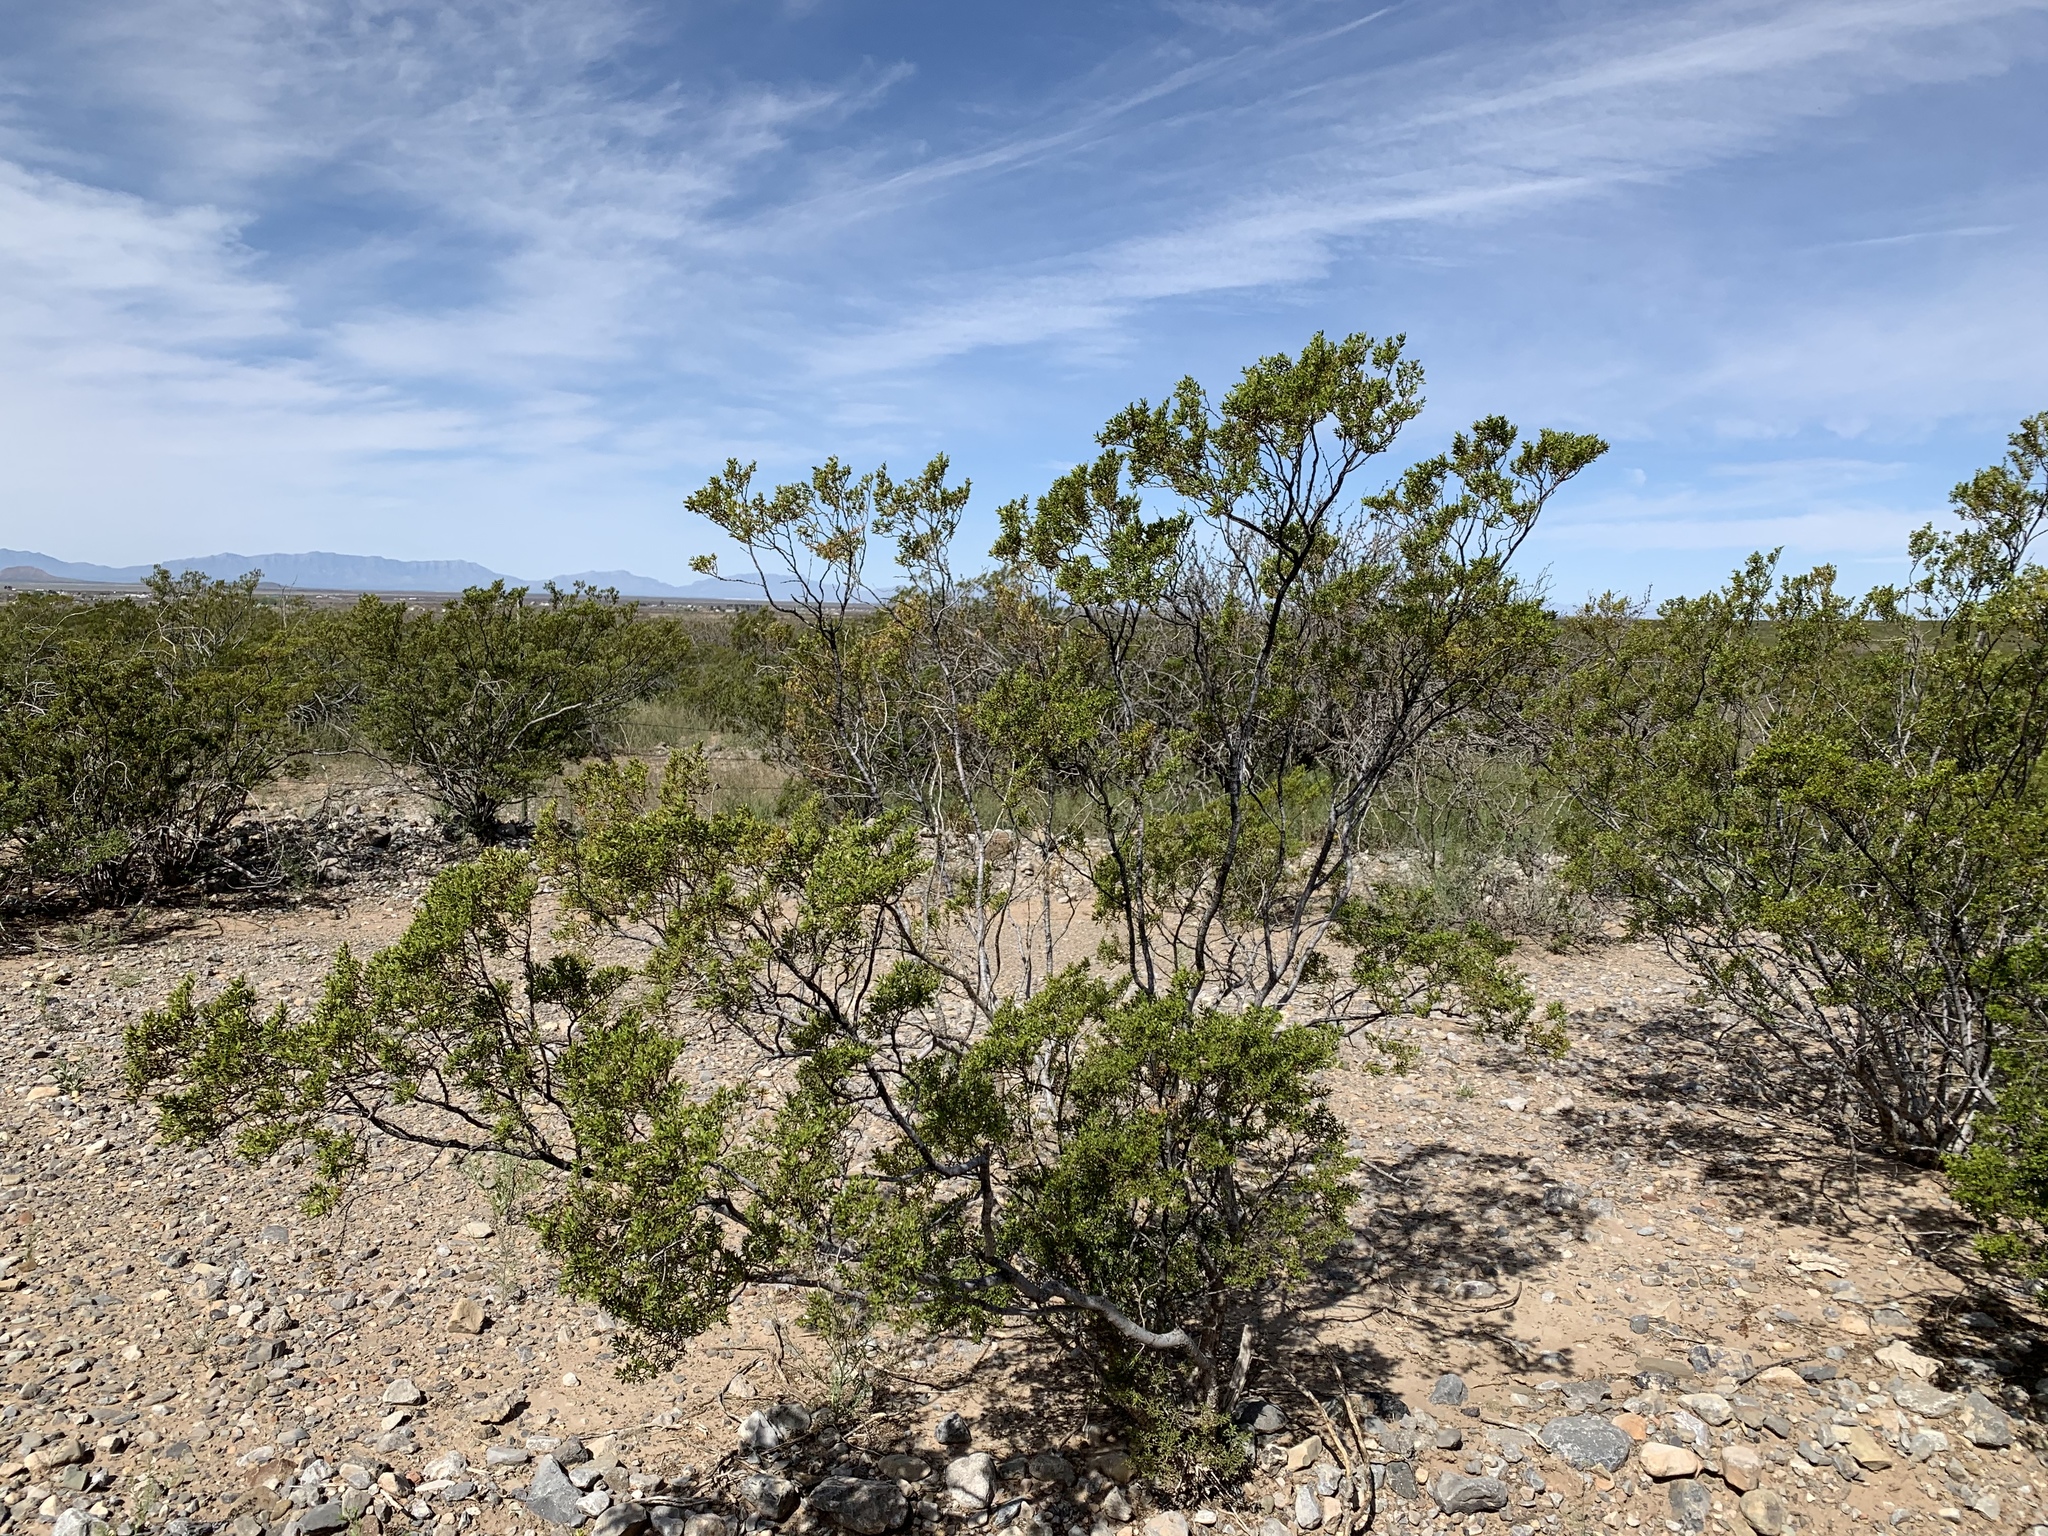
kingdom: Plantae
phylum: Tracheophyta
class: Magnoliopsida
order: Zygophyllales
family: Zygophyllaceae
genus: Larrea
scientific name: Larrea tridentata
